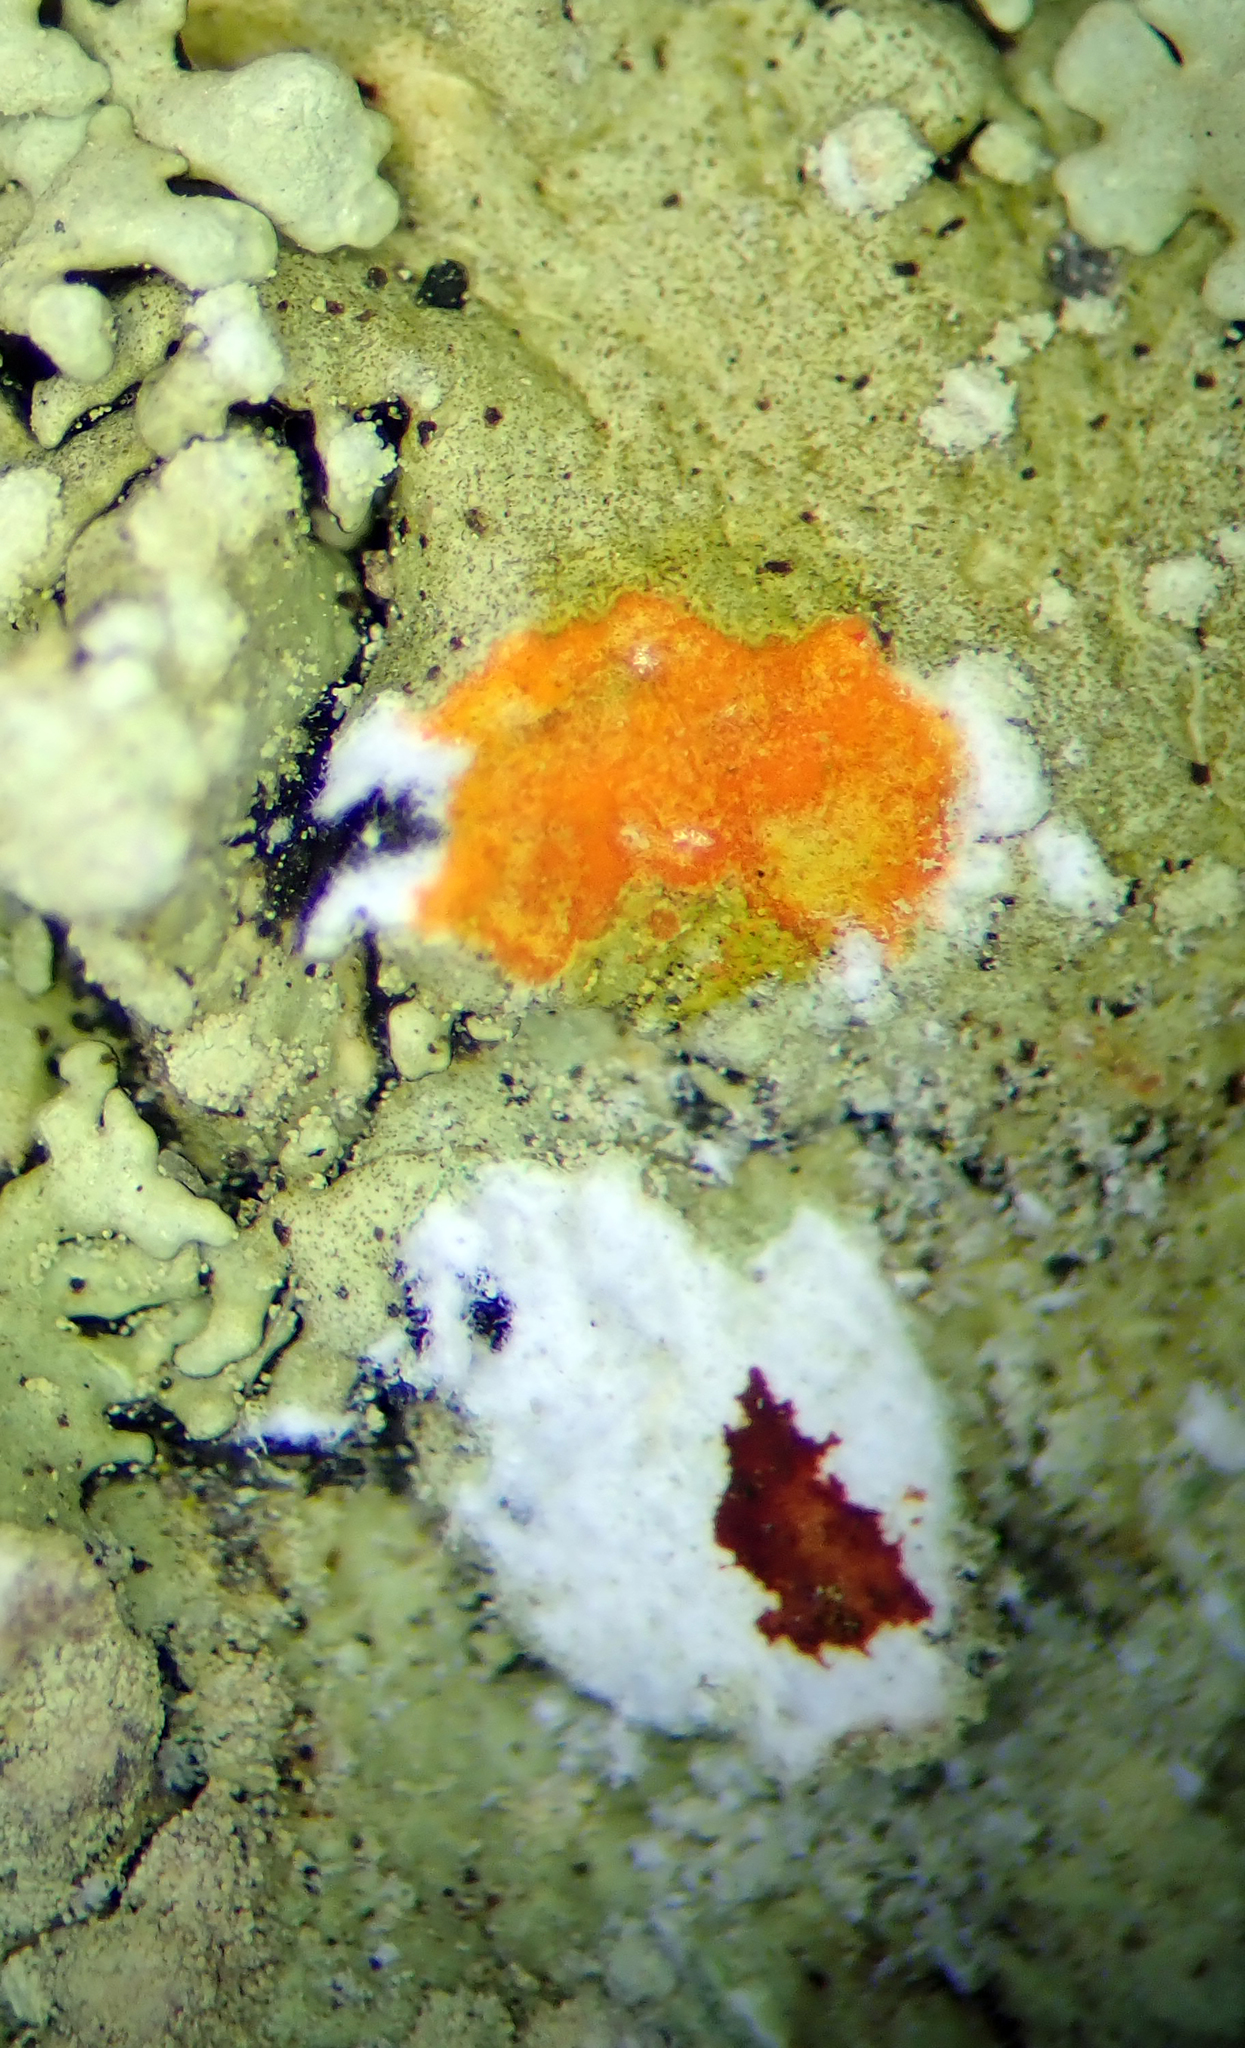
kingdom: Fungi
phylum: Ascomycota
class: Lecanoromycetes
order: Lecanorales
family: Parmeliaceae
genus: Flavoparmelia
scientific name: Flavoparmelia soredians
